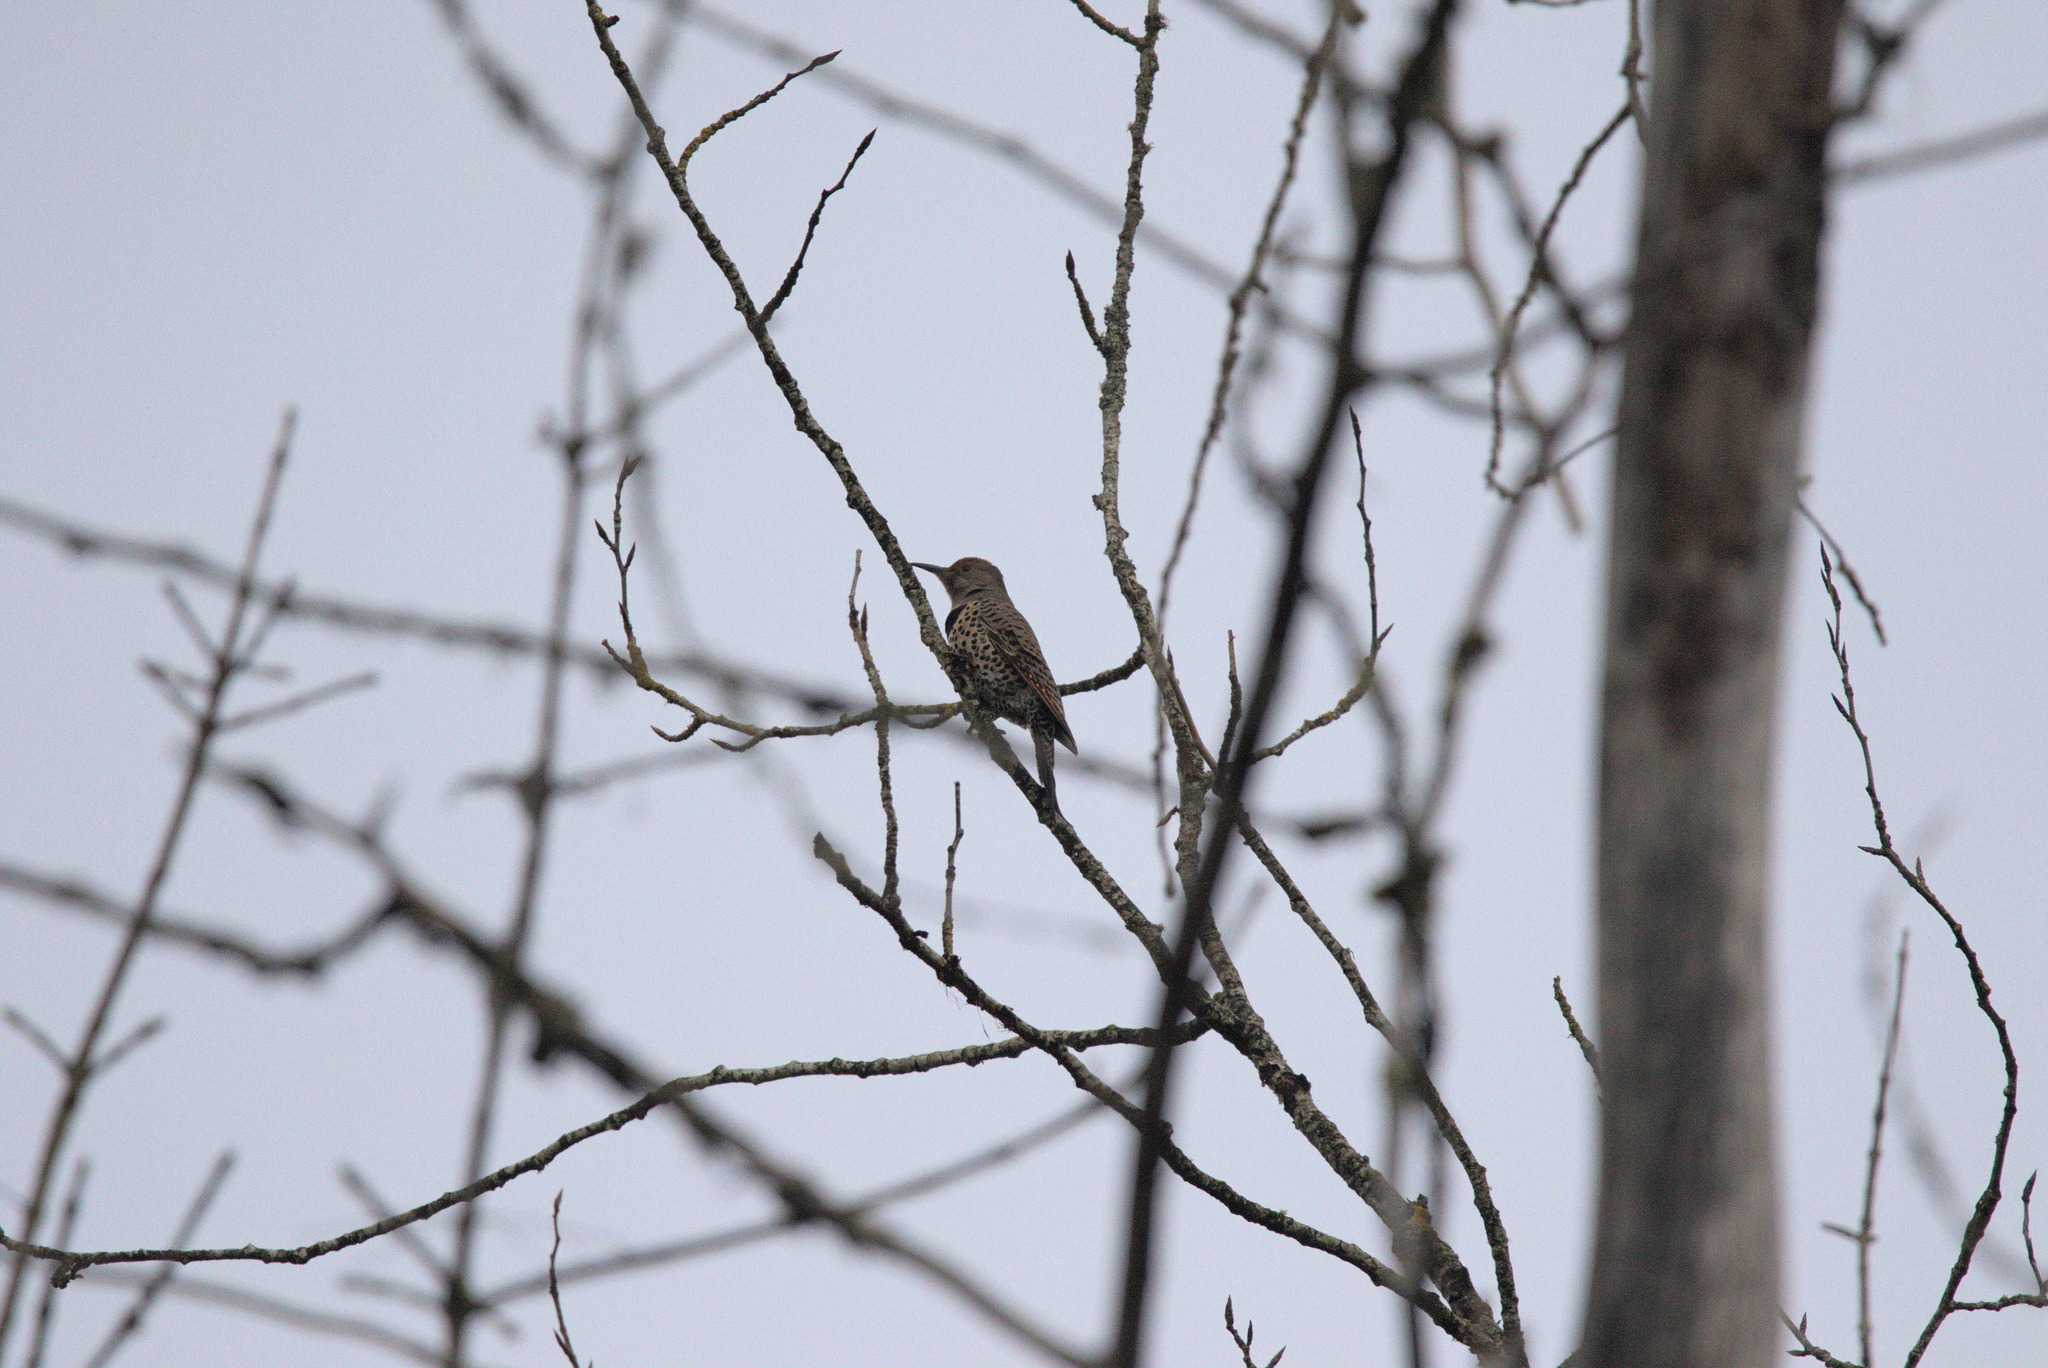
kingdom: Animalia
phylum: Chordata
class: Aves
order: Piciformes
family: Picidae
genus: Colaptes
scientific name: Colaptes auratus
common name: Northern flicker
